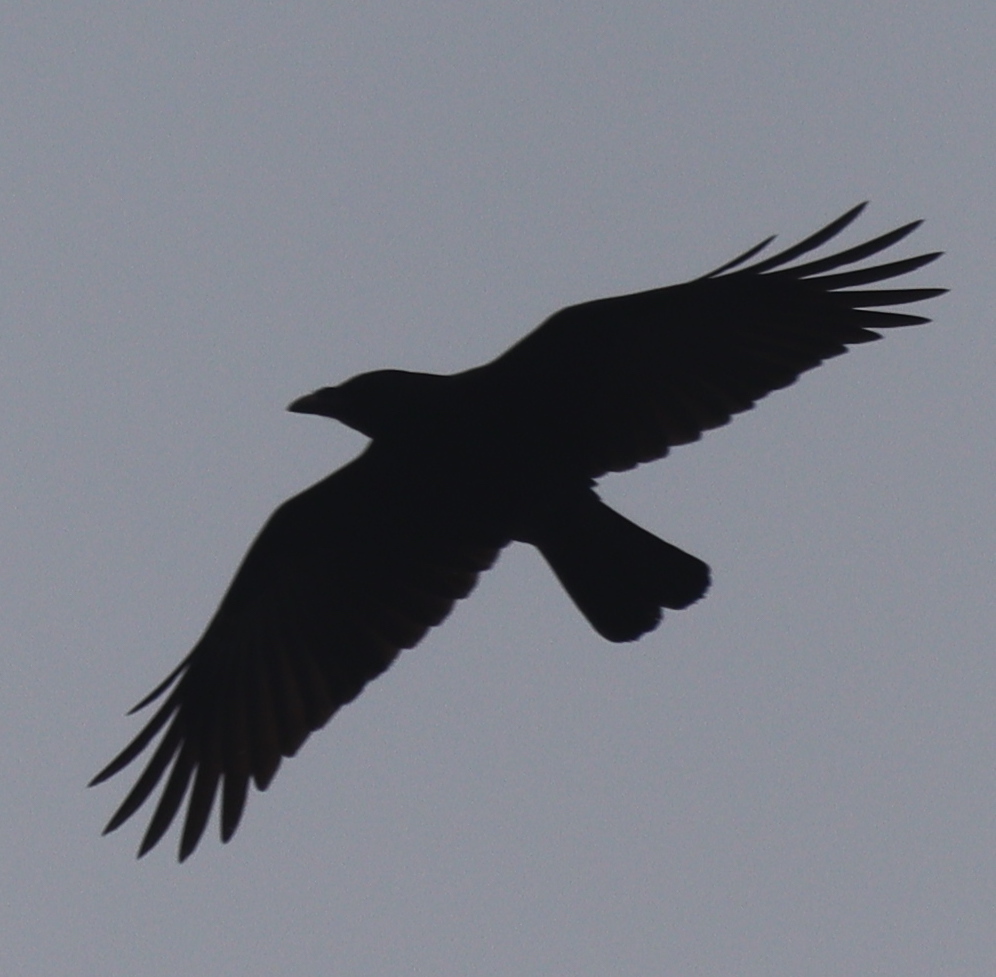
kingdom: Animalia
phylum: Chordata
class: Aves
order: Passeriformes
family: Corvidae
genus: Corvus
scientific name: Corvus corone
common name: Carrion crow
